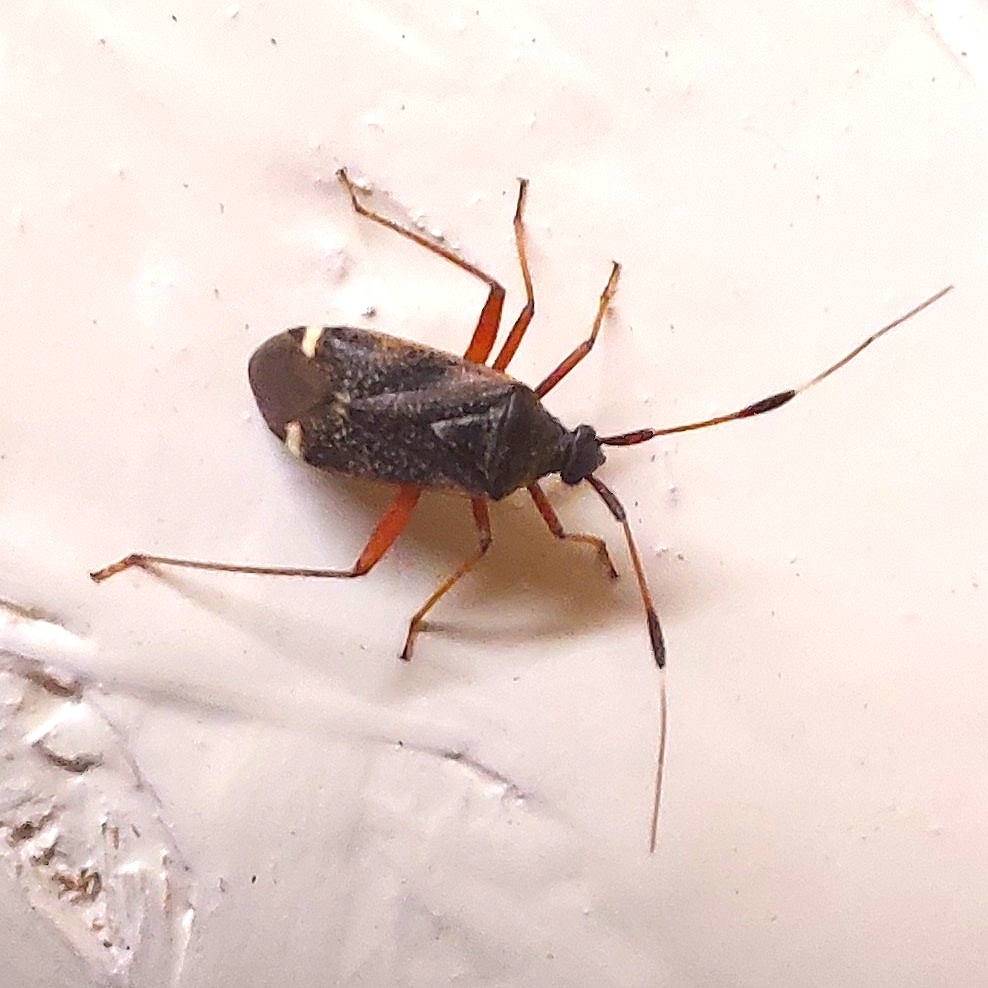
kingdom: Animalia
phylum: Arthropoda
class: Insecta
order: Hemiptera
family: Miridae
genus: Closterotomus
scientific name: Closterotomus biclavatus
